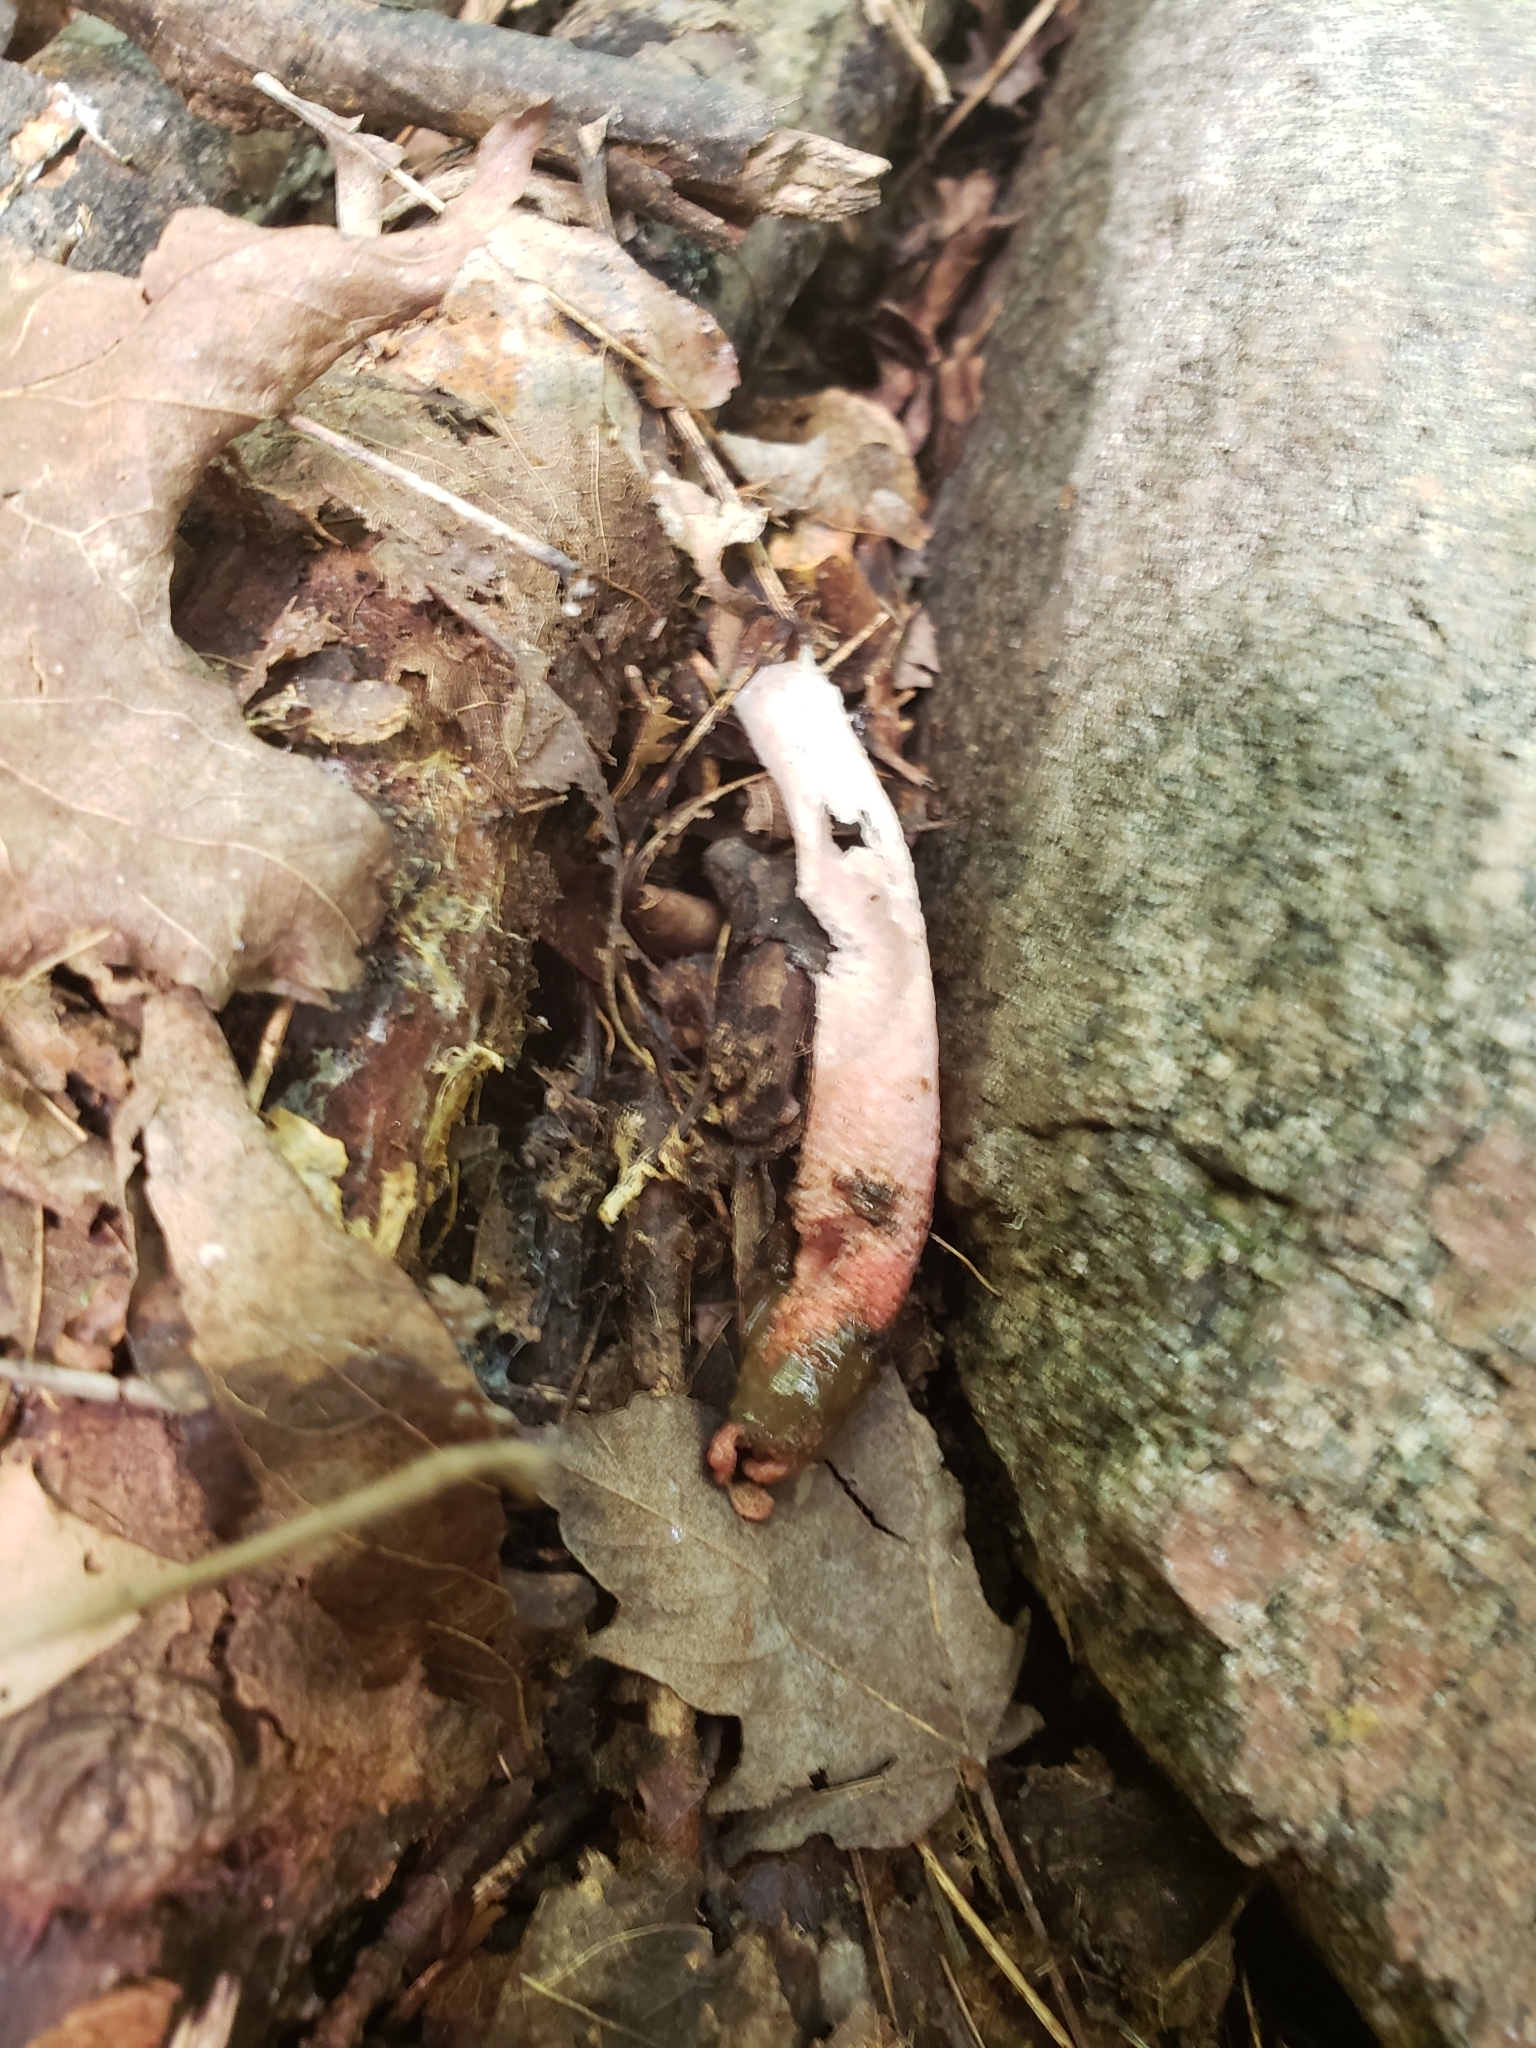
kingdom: Fungi
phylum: Basidiomycota
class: Agaricomycetes
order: Phallales
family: Phallaceae
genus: Mutinus
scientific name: Mutinus elegans
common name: Devil's dipstick
